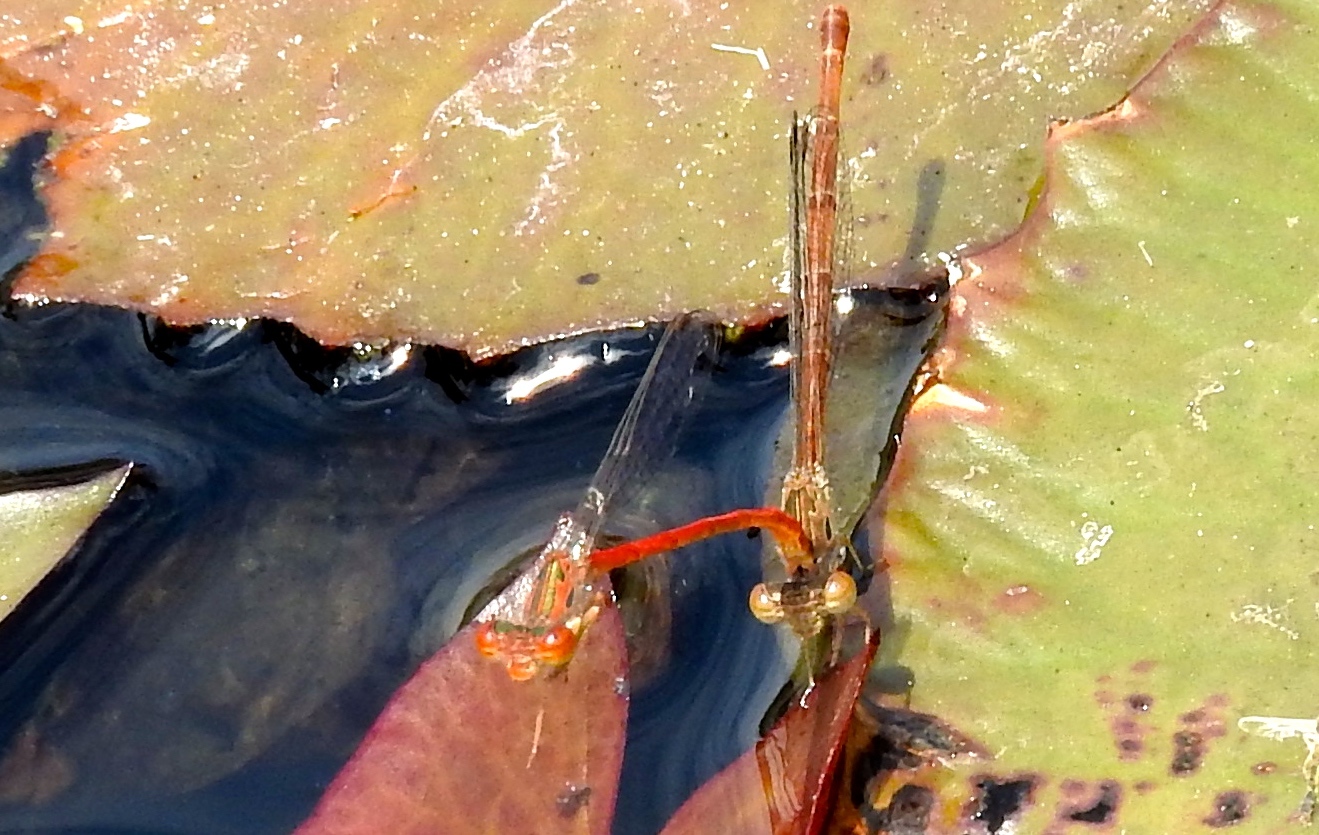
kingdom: Animalia
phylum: Arthropoda
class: Insecta
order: Odonata
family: Coenagrionidae
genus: Telebasis
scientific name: Telebasis salva
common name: Desert firetail
